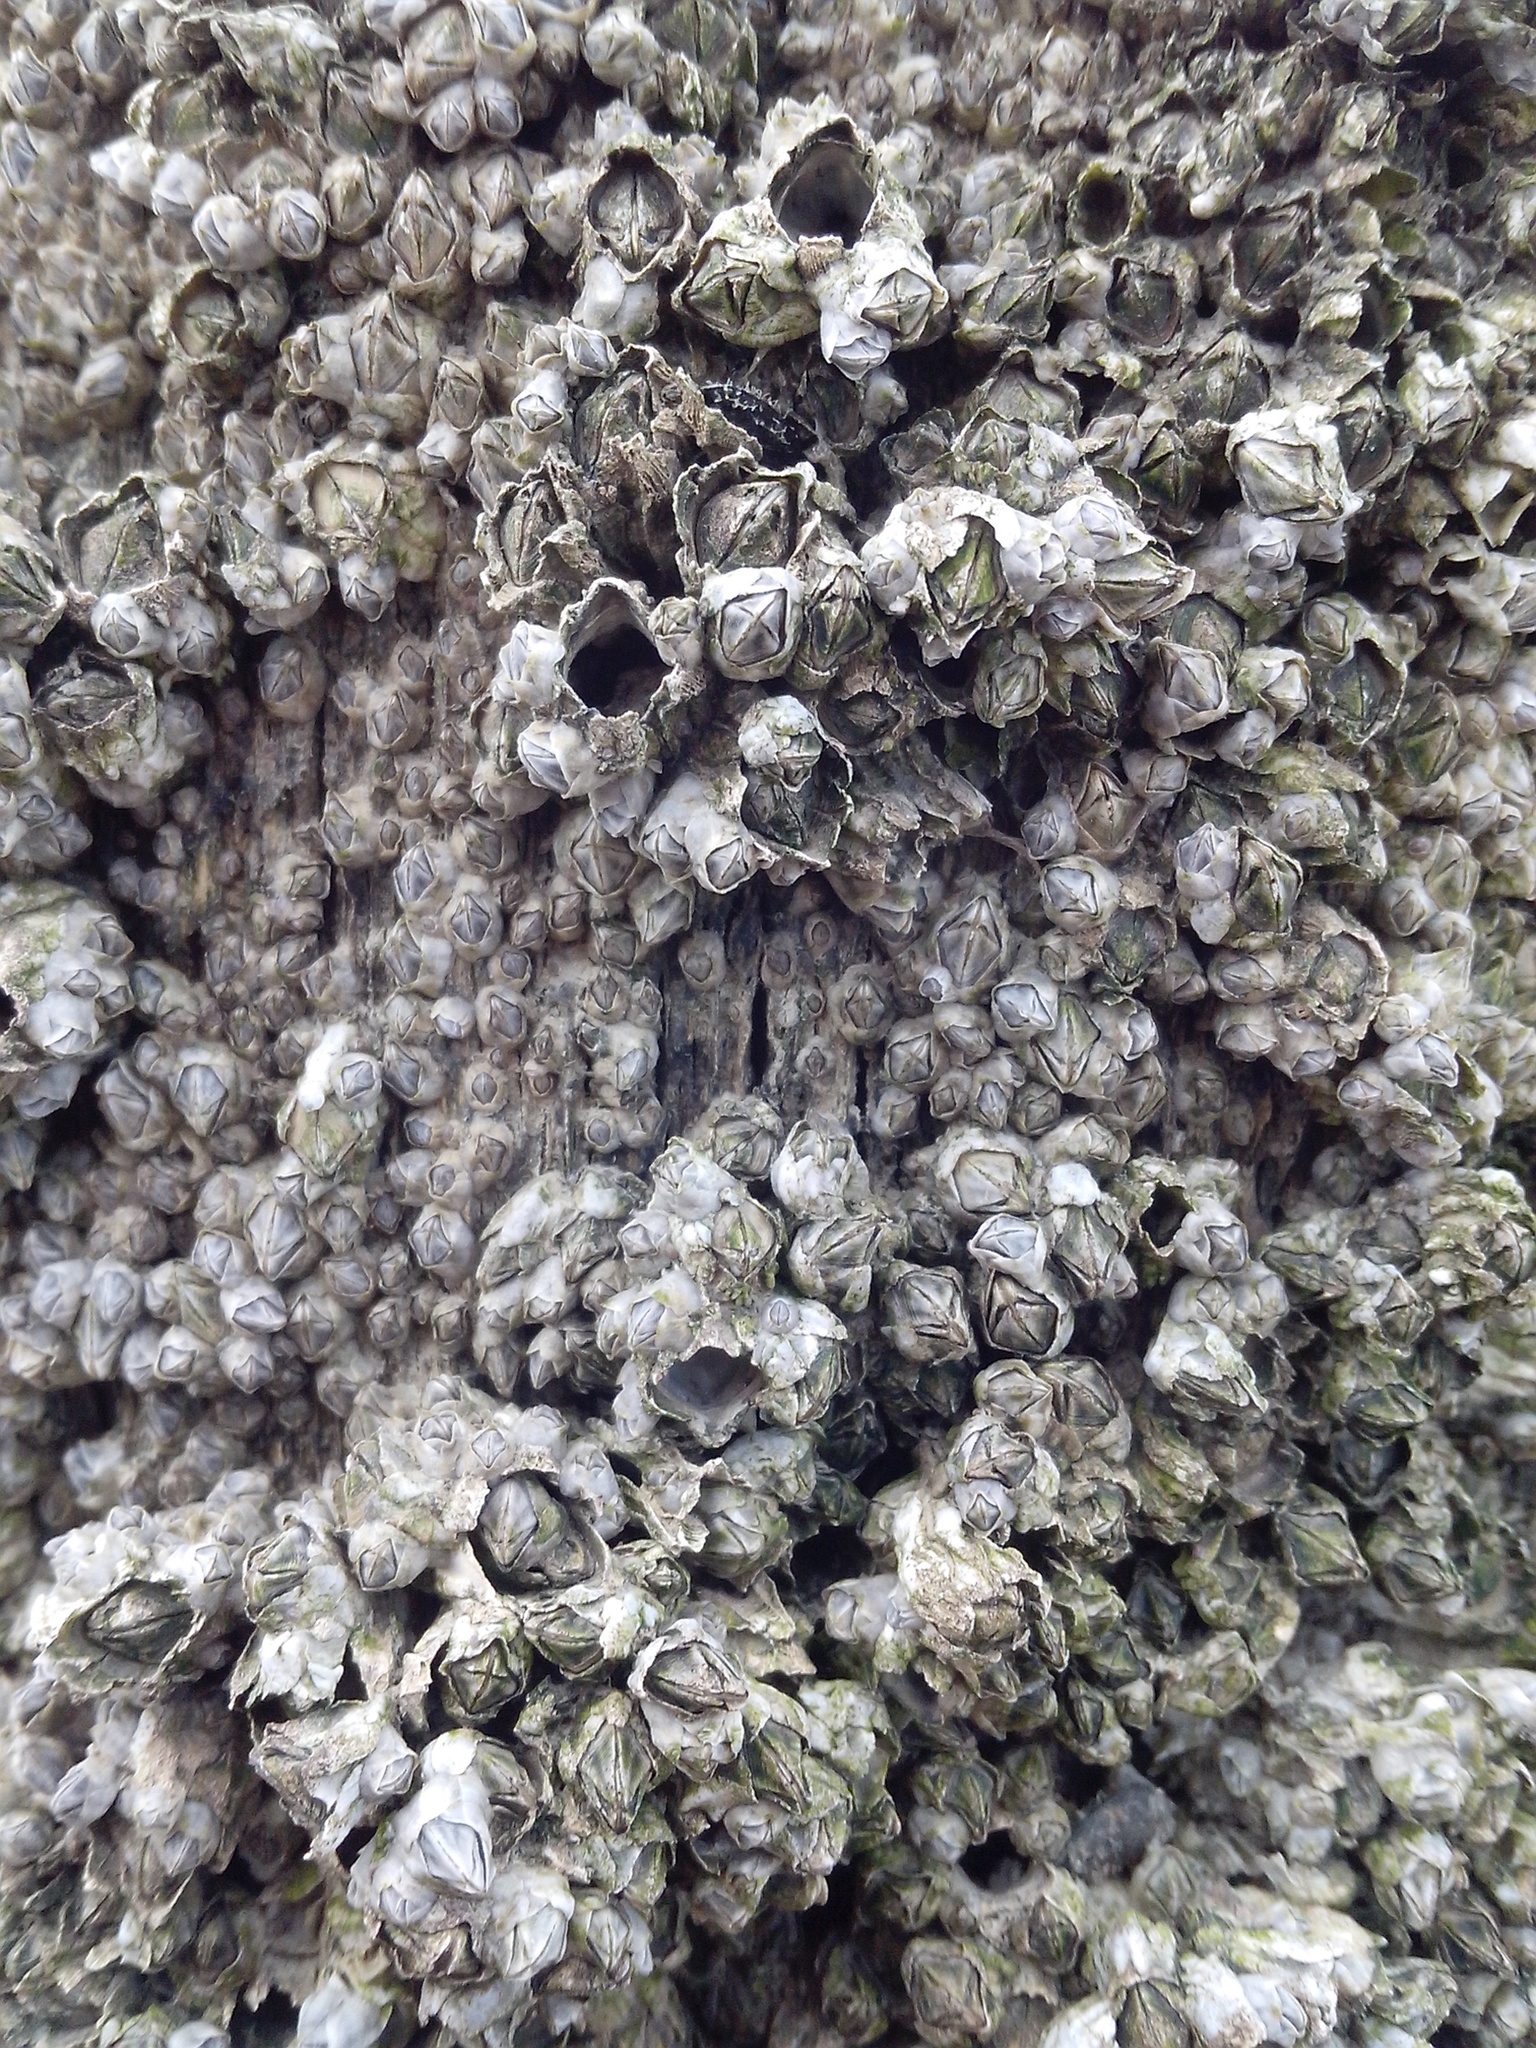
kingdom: Animalia
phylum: Arthropoda
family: Elminiidae
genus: Austrominius
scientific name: Austrominius modestus
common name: Australasian barnacle
